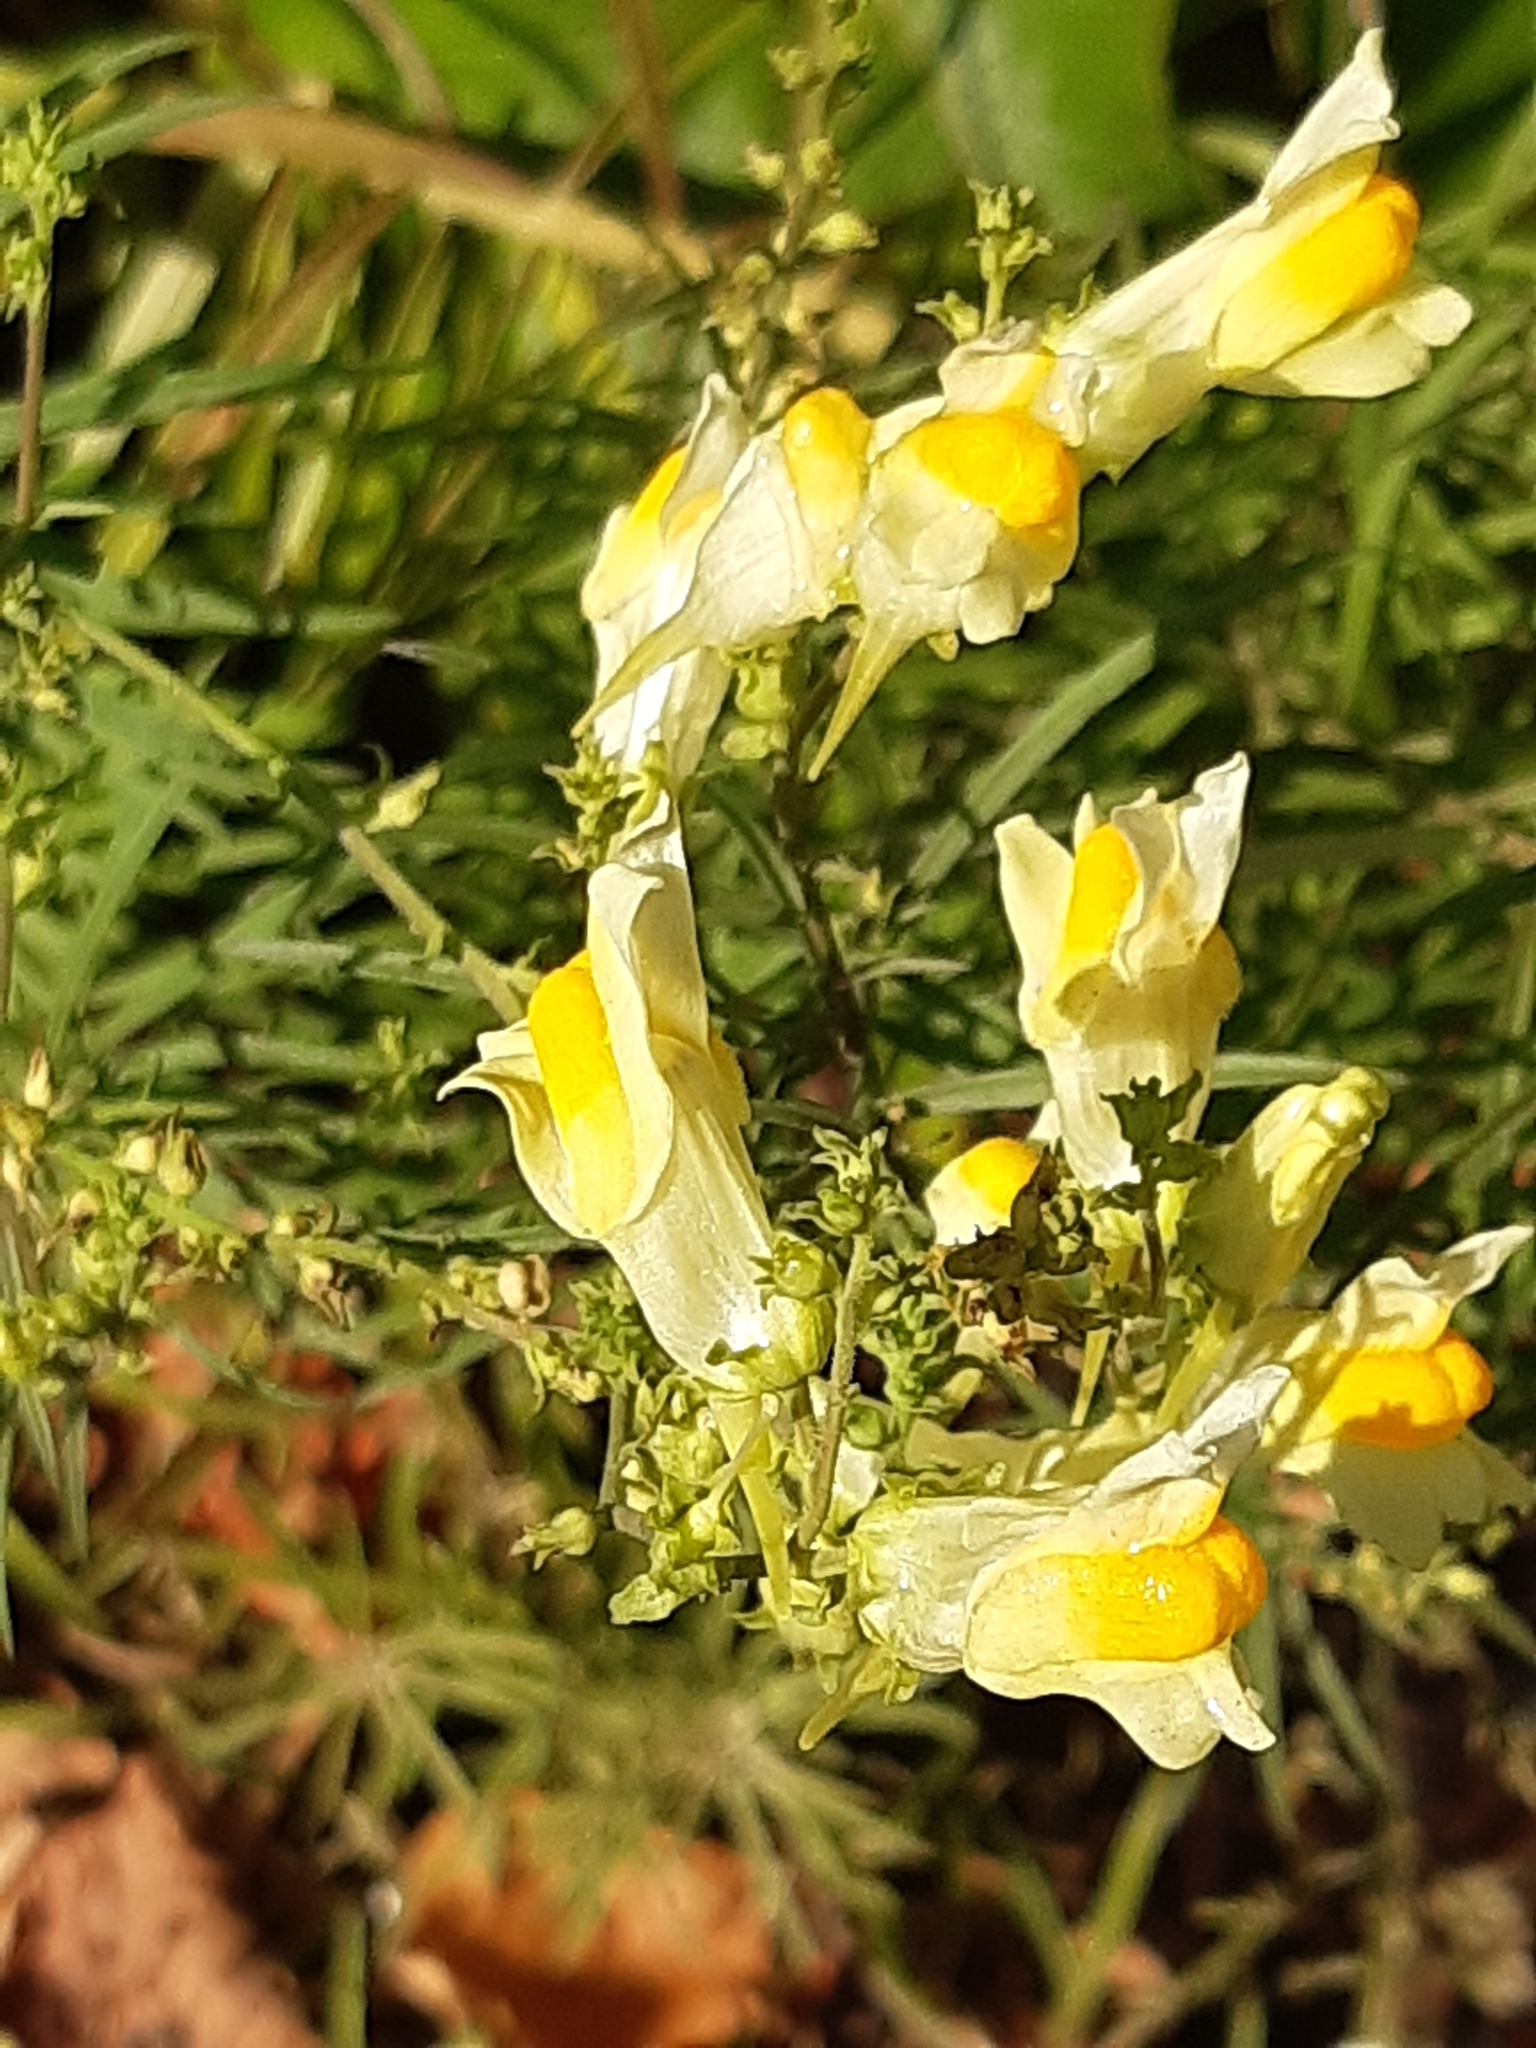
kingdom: Plantae
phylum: Tracheophyta
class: Magnoliopsida
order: Lamiales
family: Plantaginaceae
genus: Linaria
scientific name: Linaria vulgaris
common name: Butter and eggs
